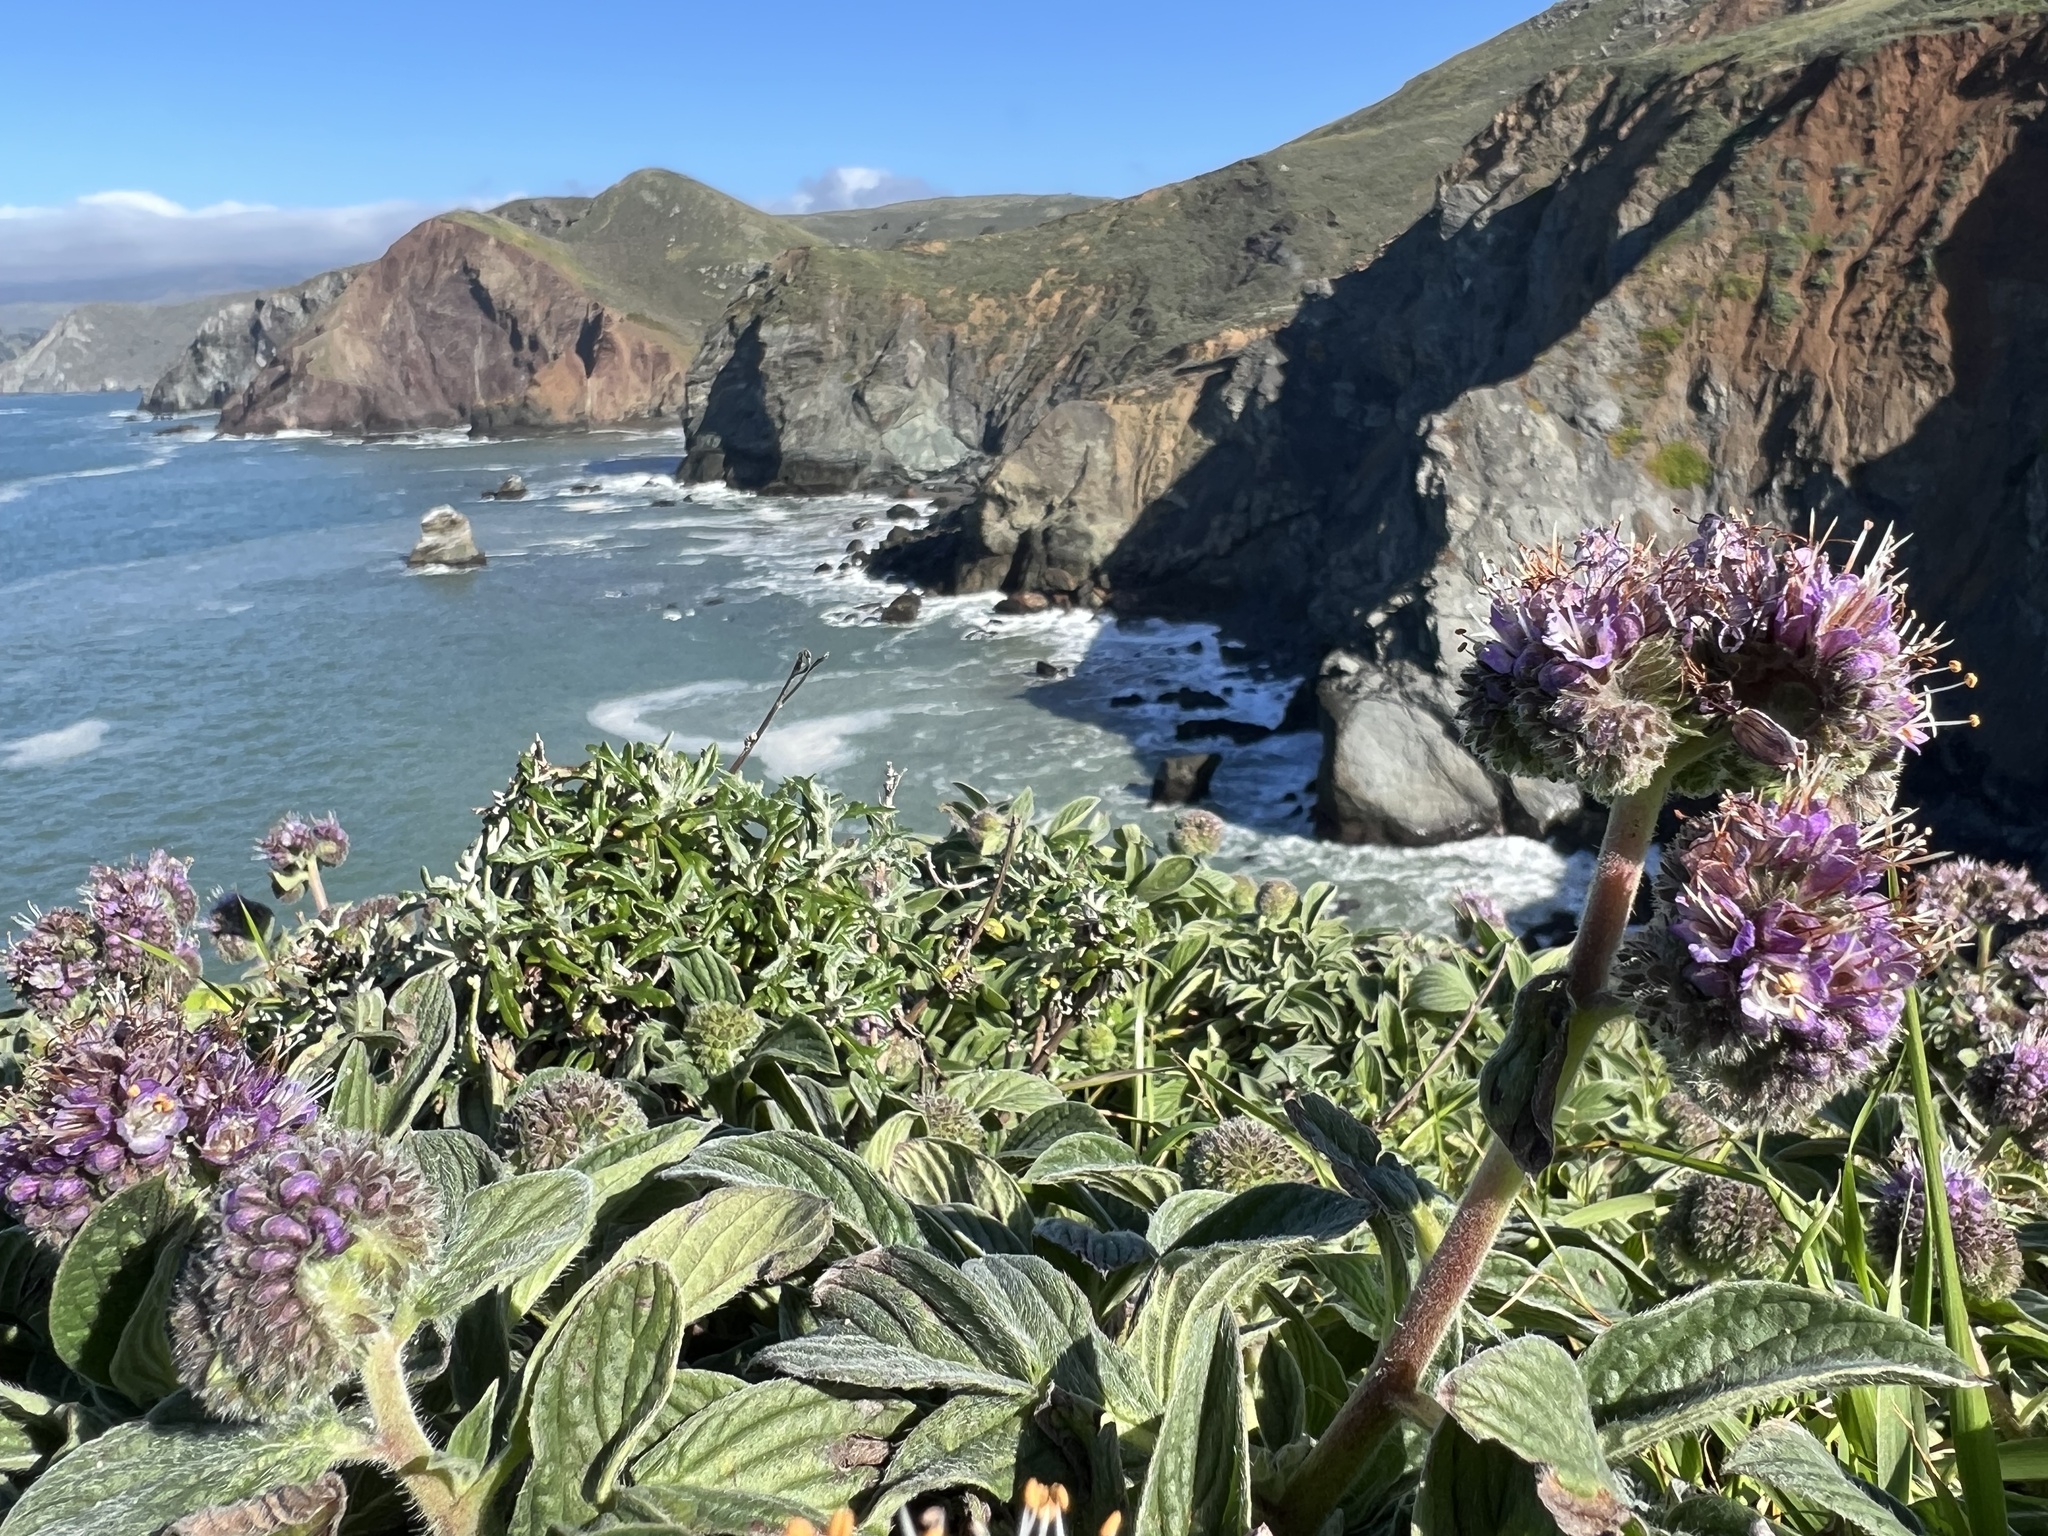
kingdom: Plantae
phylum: Tracheophyta
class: Magnoliopsida
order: Boraginales
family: Hydrophyllaceae
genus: Phacelia
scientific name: Phacelia californica
